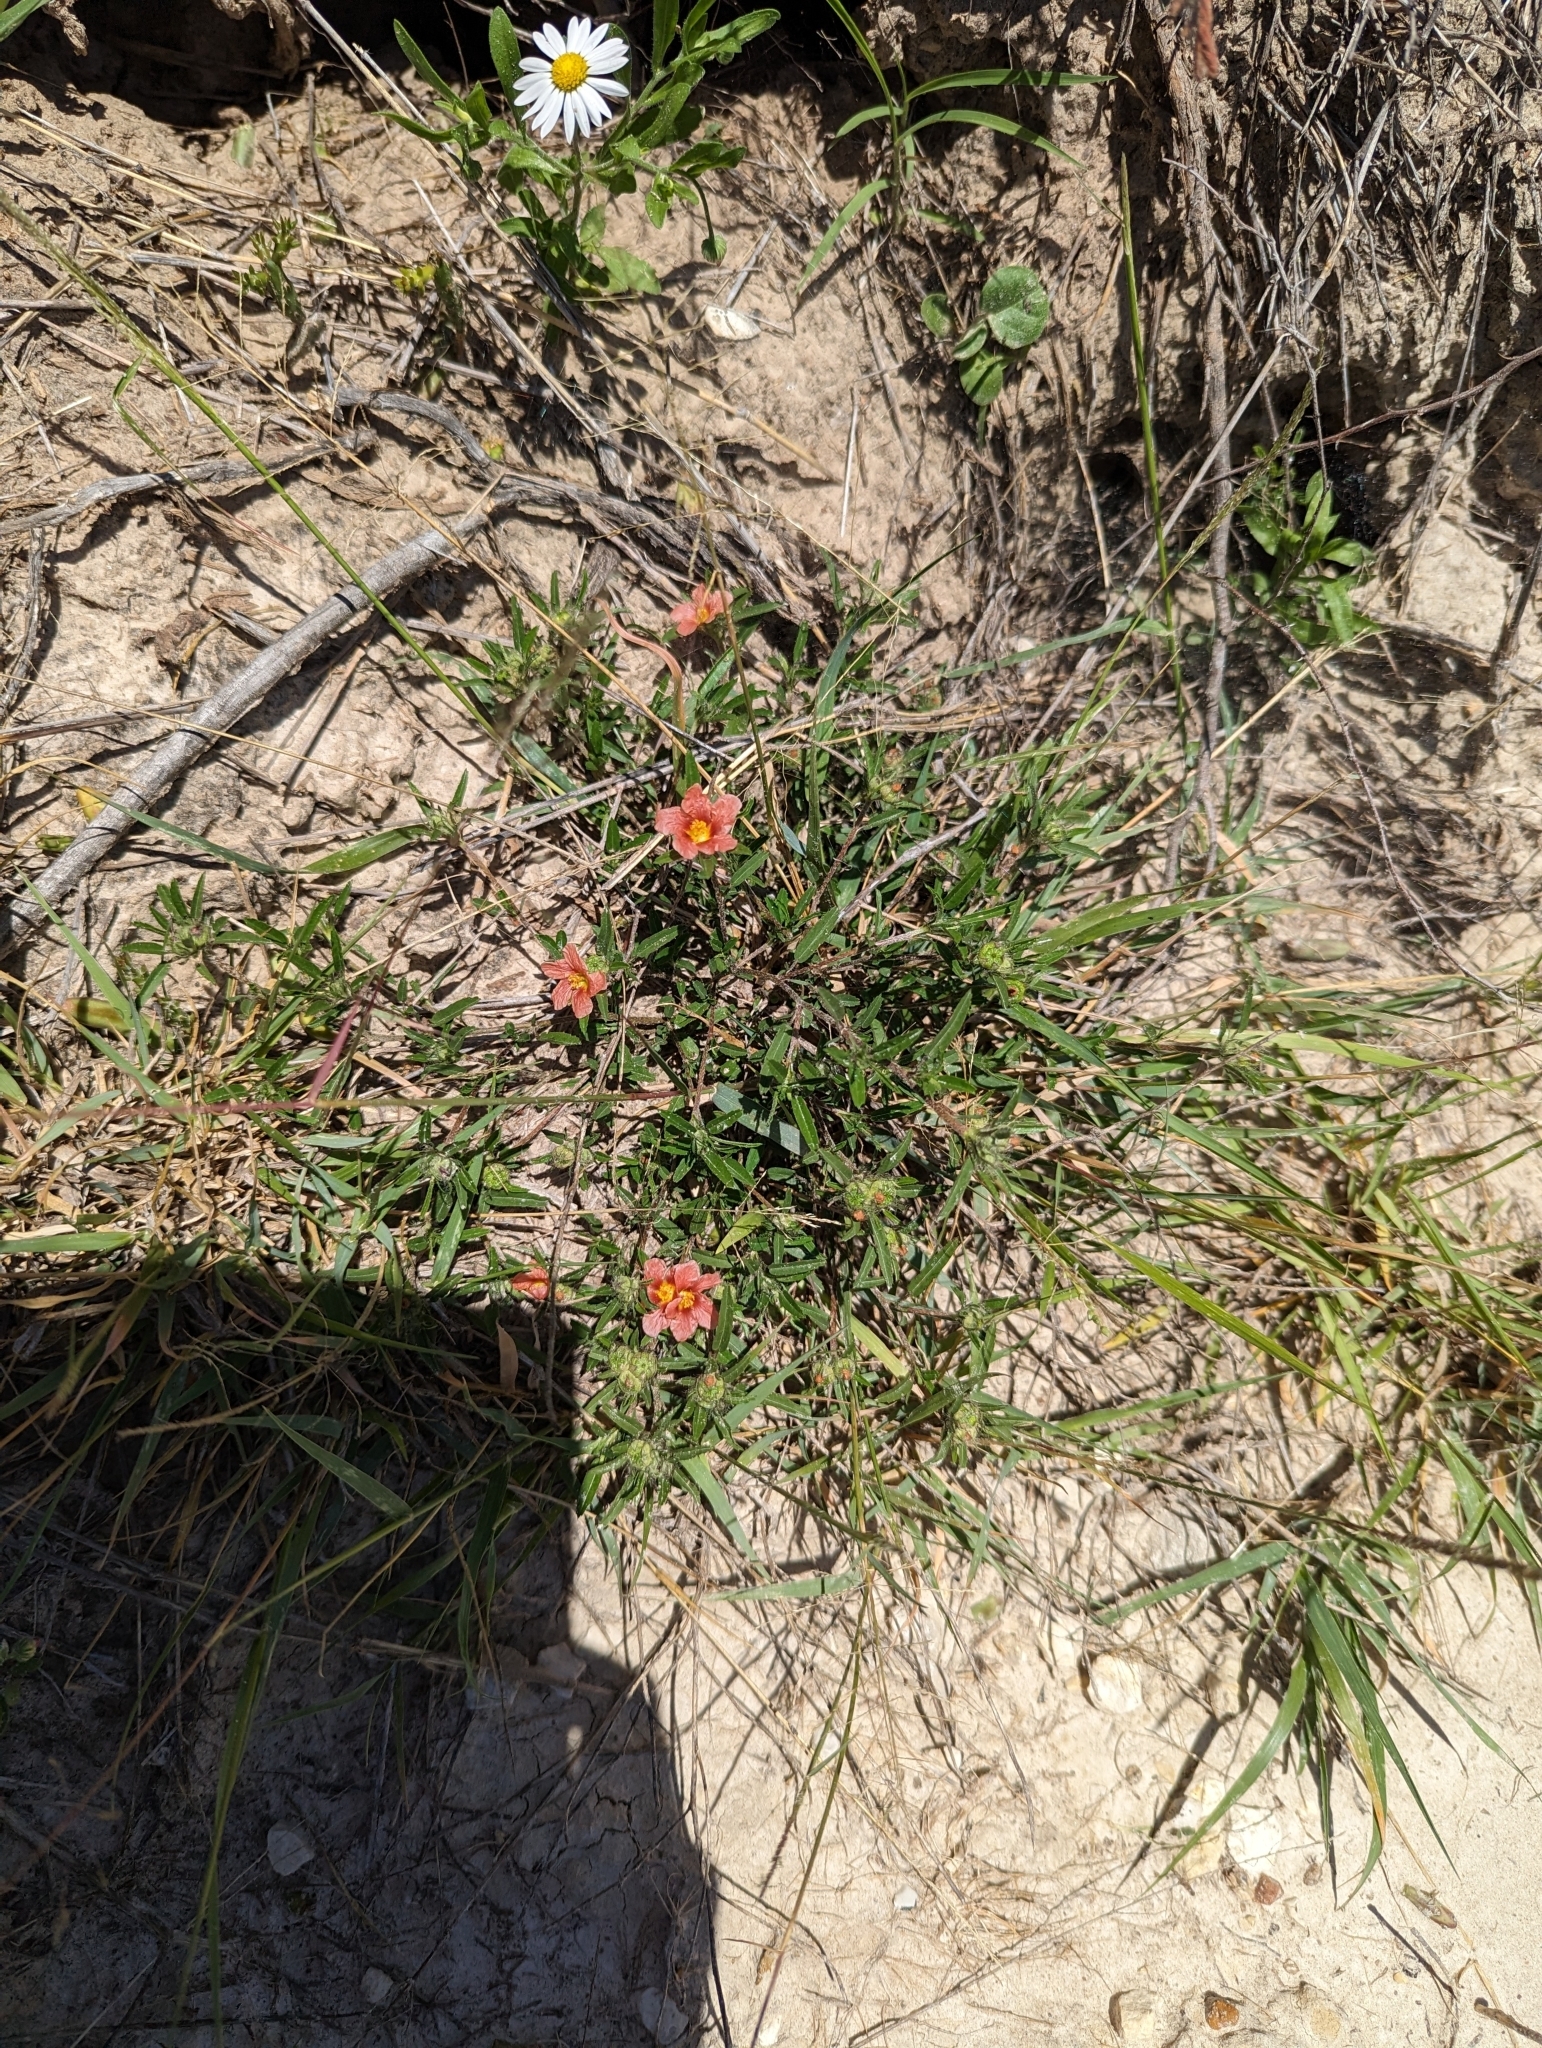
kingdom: Plantae
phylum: Tracheophyta
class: Magnoliopsida
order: Malvales
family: Malvaceae
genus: Sida
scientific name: Sida ciliaris
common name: Bracted fanpetals
